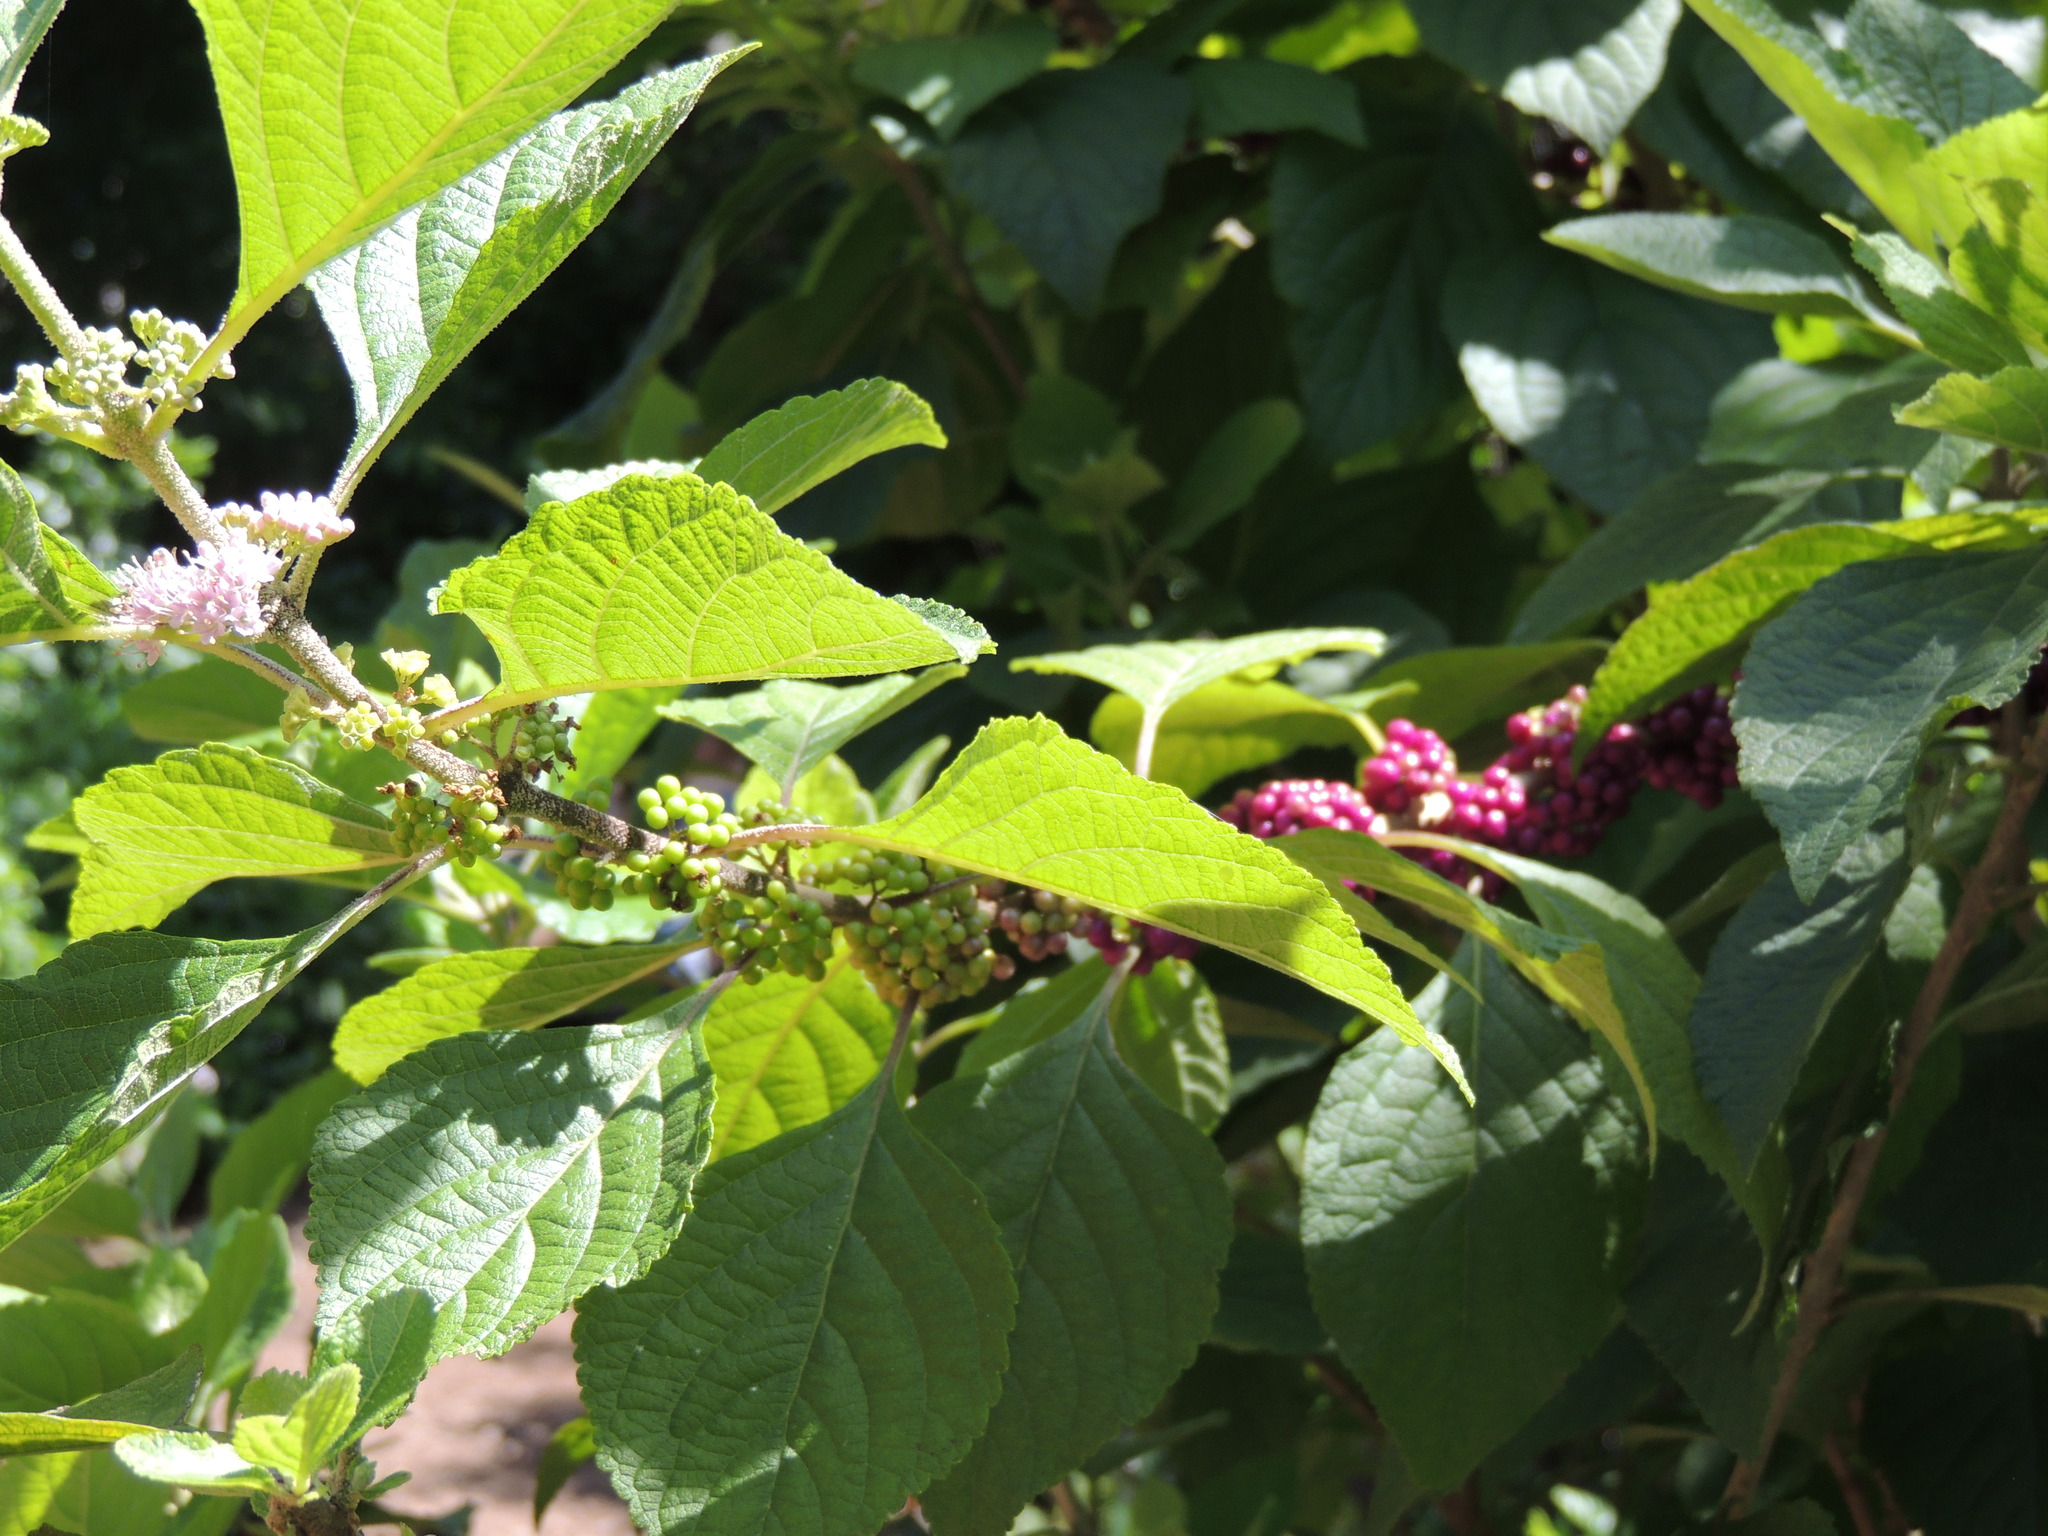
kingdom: Plantae
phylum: Tracheophyta
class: Magnoliopsida
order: Lamiales
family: Lamiaceae
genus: Callicarpa
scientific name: Callicarpa americana
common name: American beautyberry
